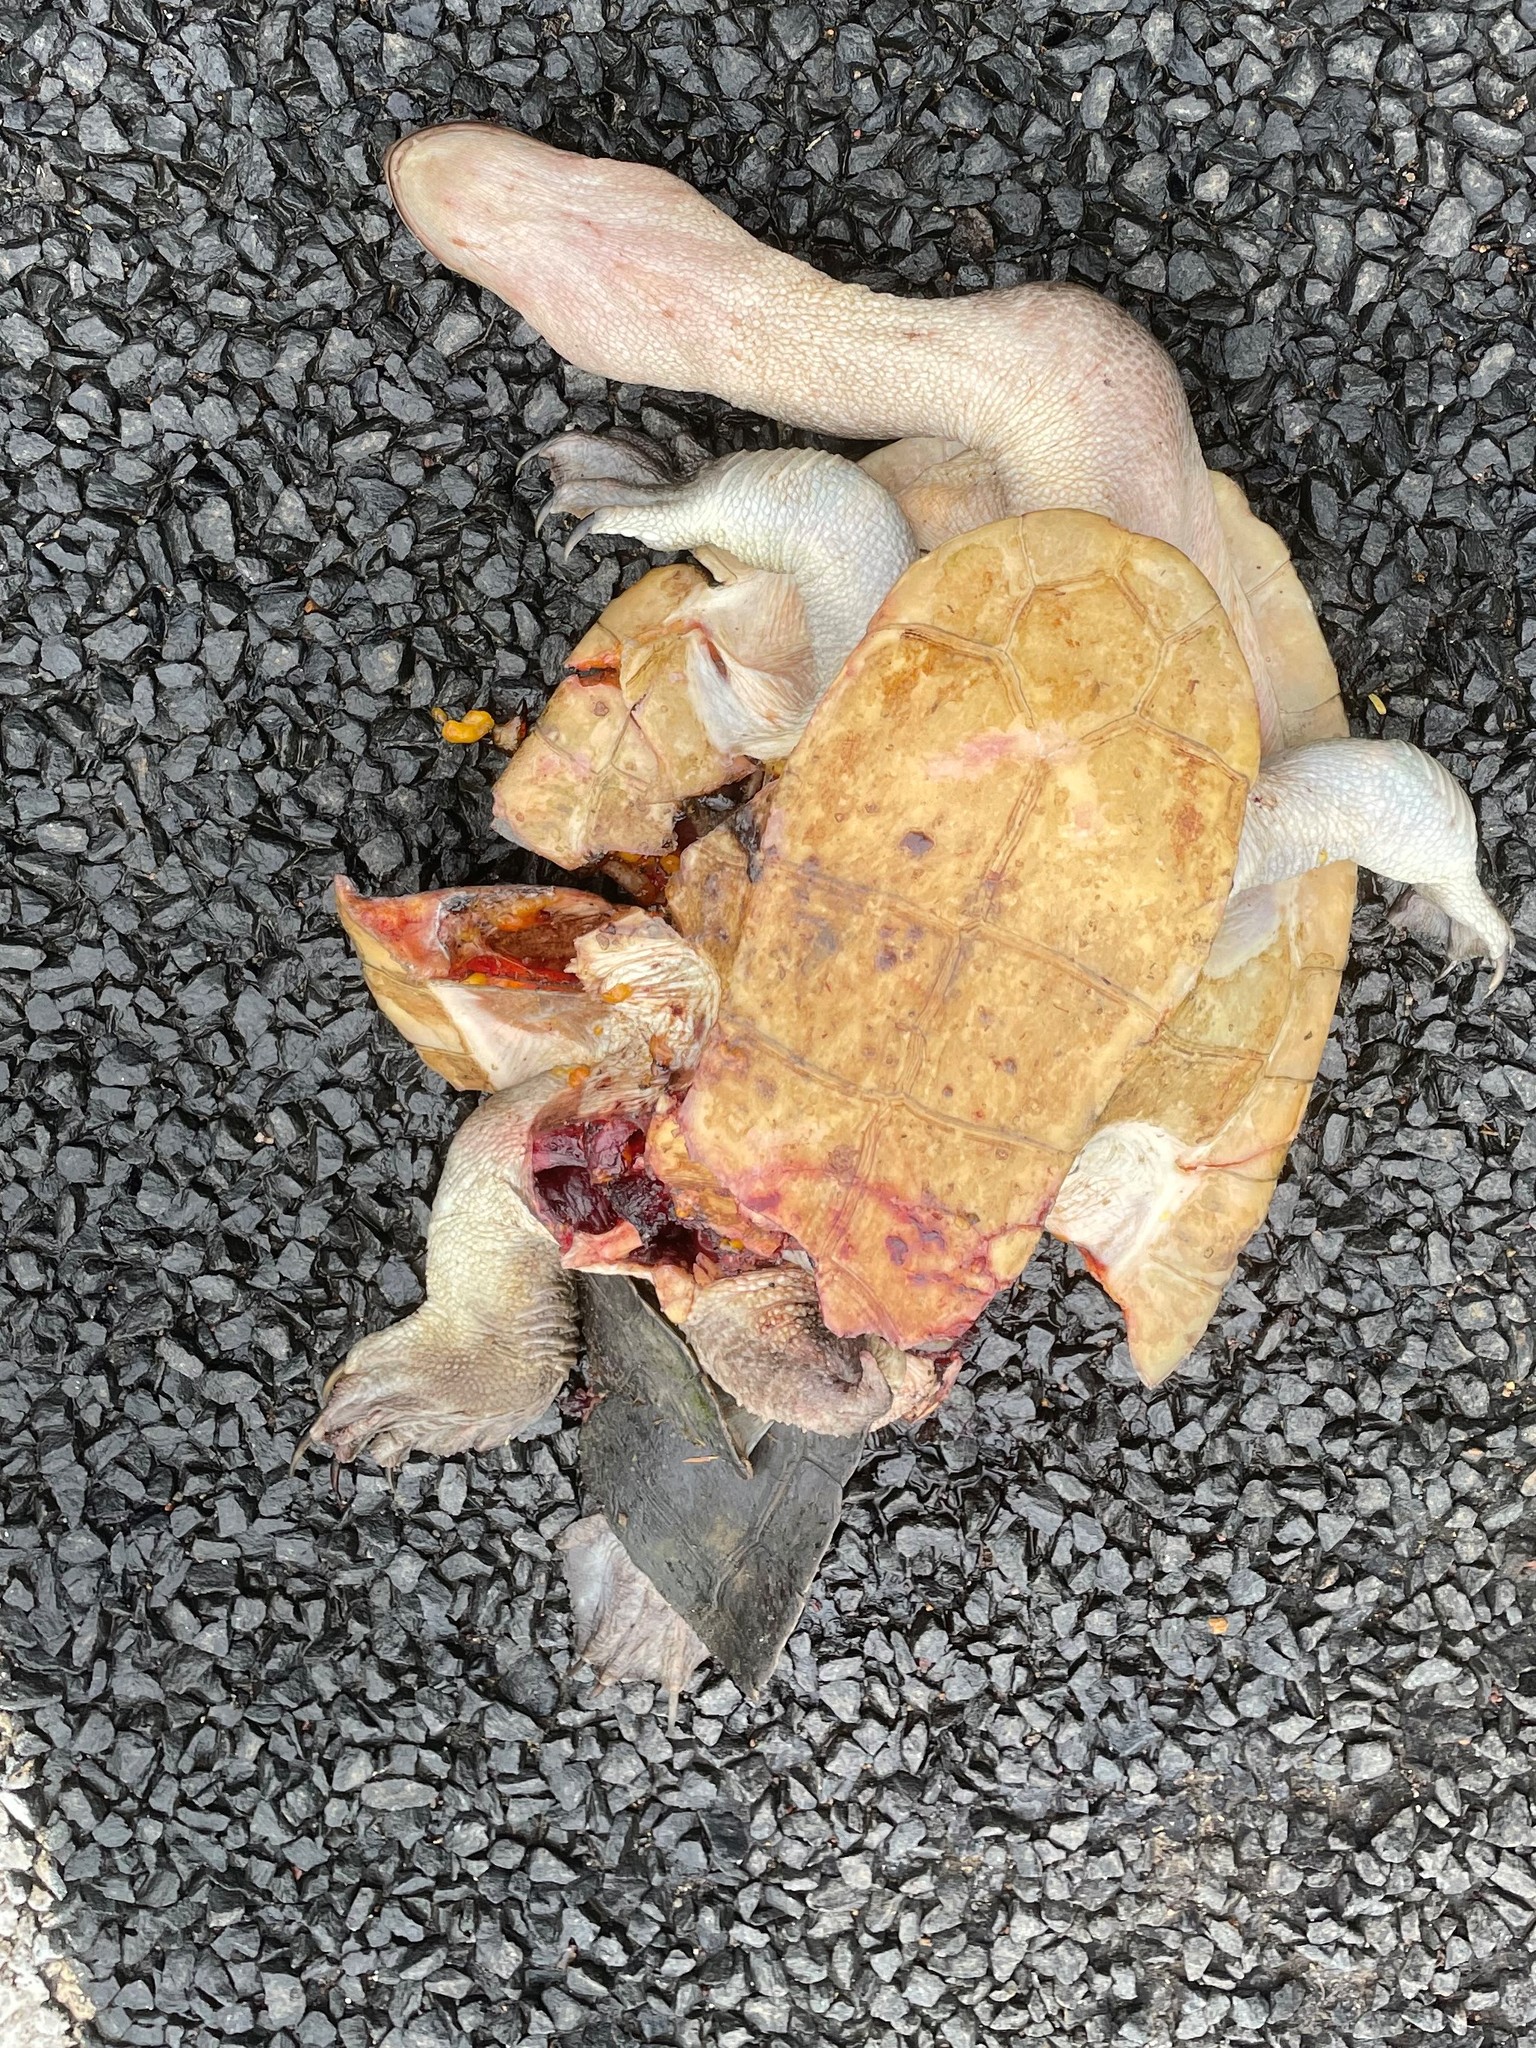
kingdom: Animalia
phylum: Chordata
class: Testudines
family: Chelidae
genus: Chelodina
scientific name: Chelodina expansa
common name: Giant snakeneck turtle
